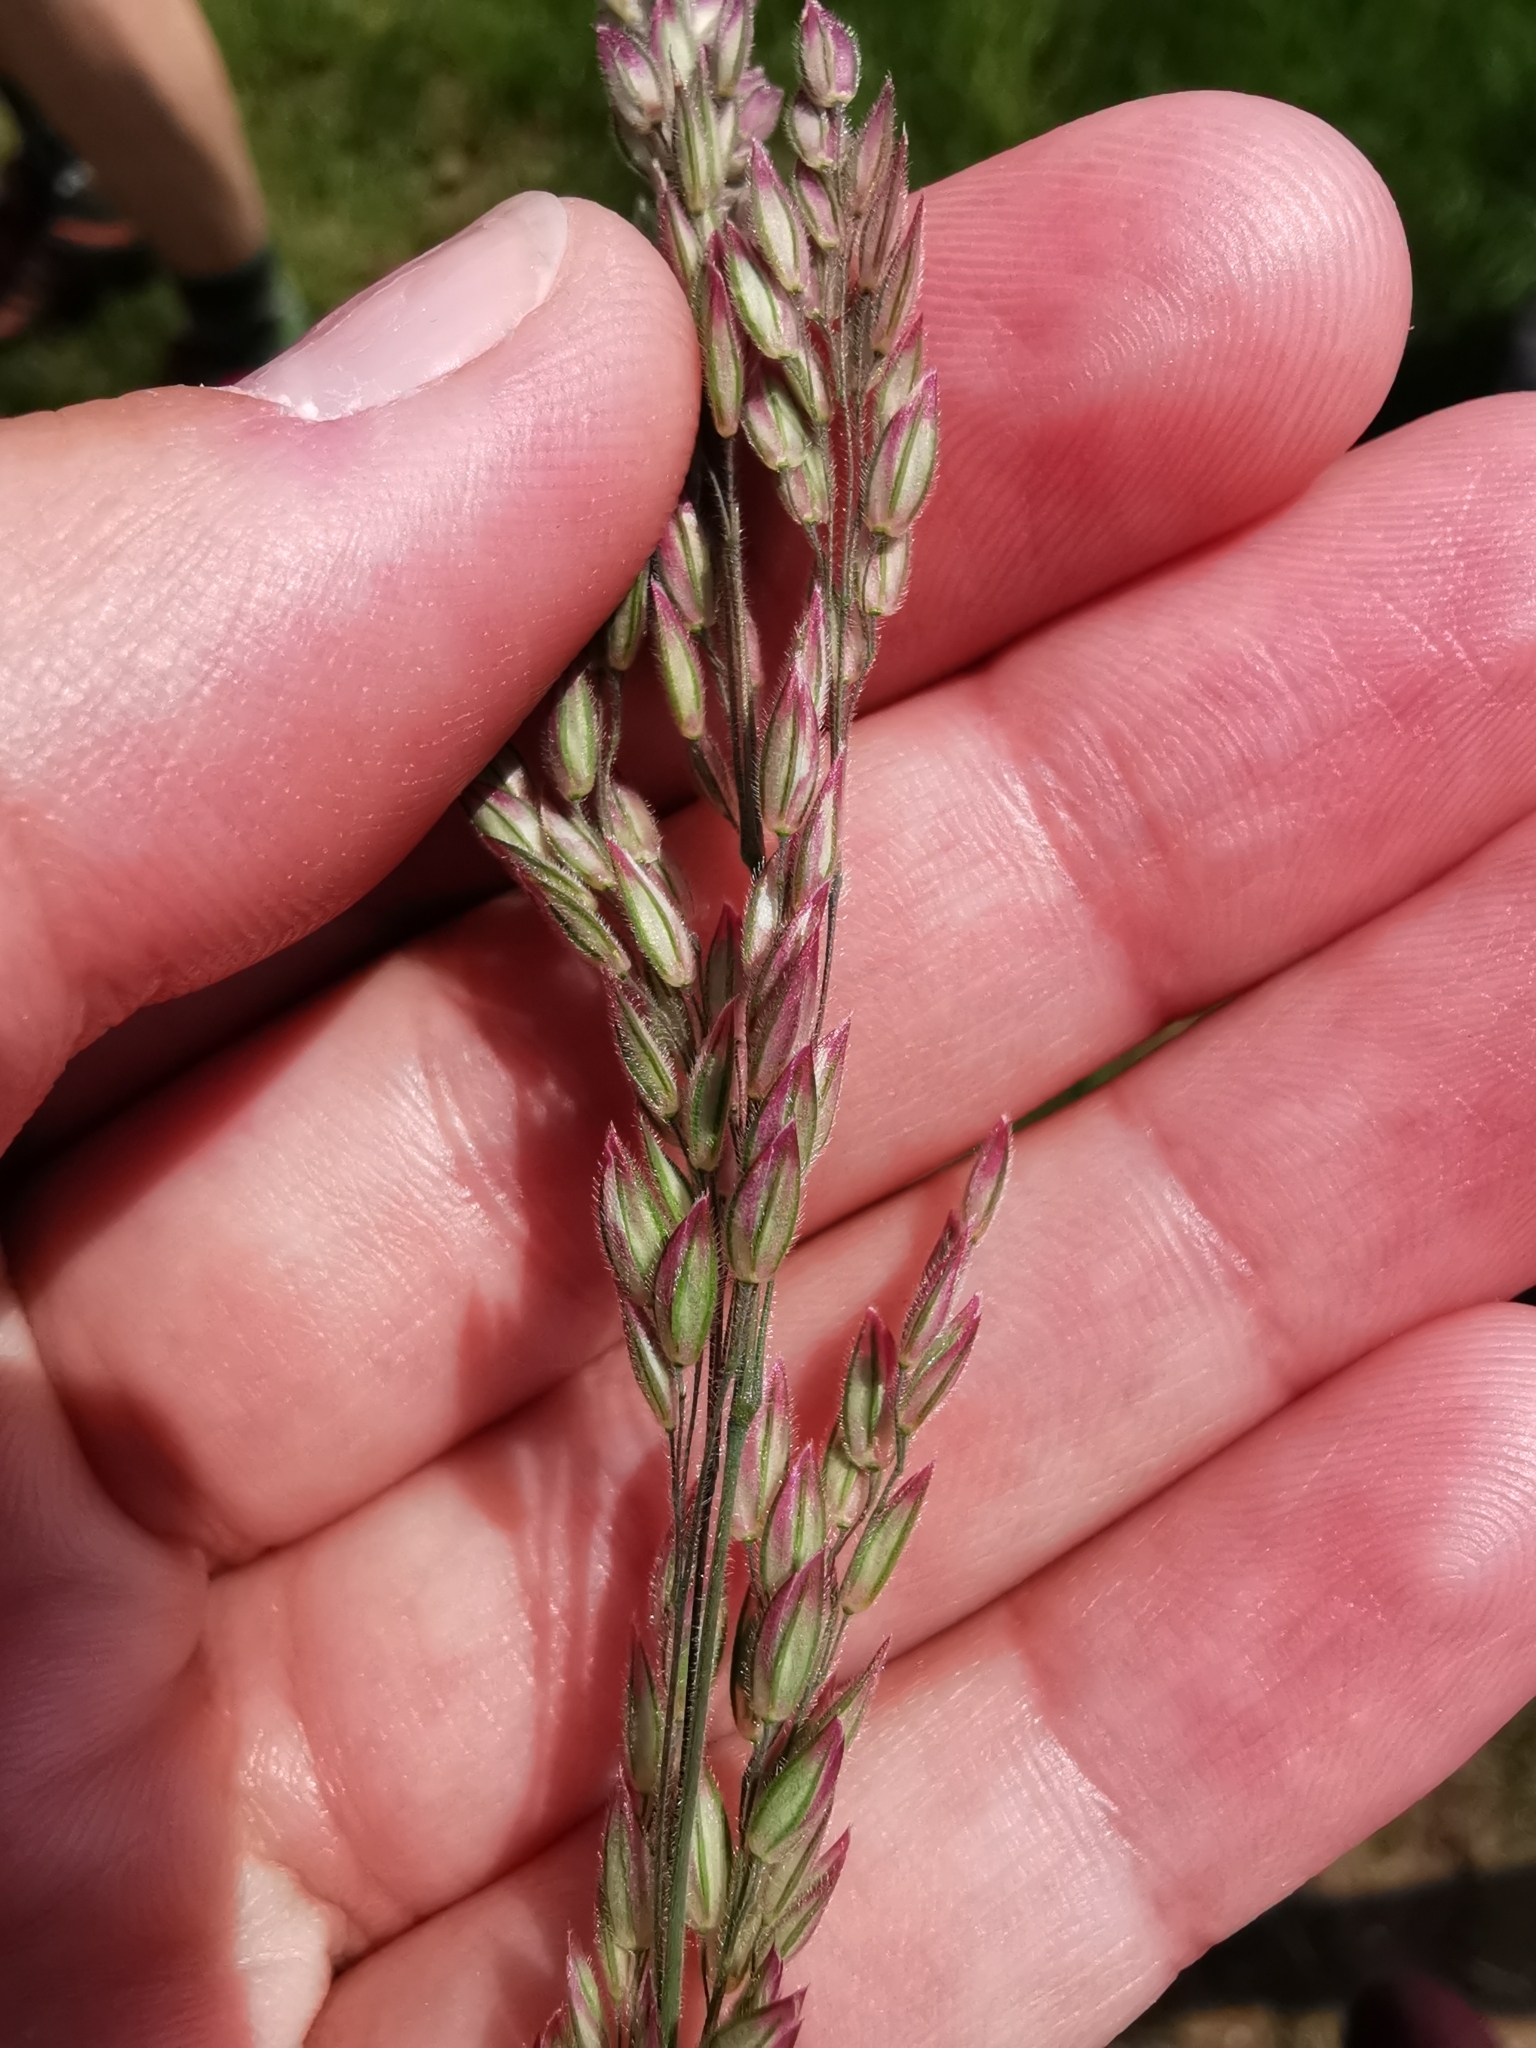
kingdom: Plantae
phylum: Tracheophyta
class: Liliopsida
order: Poales
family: Poaceae
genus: Holcus
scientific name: Holcus lanatus
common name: Yorkshire-fog
